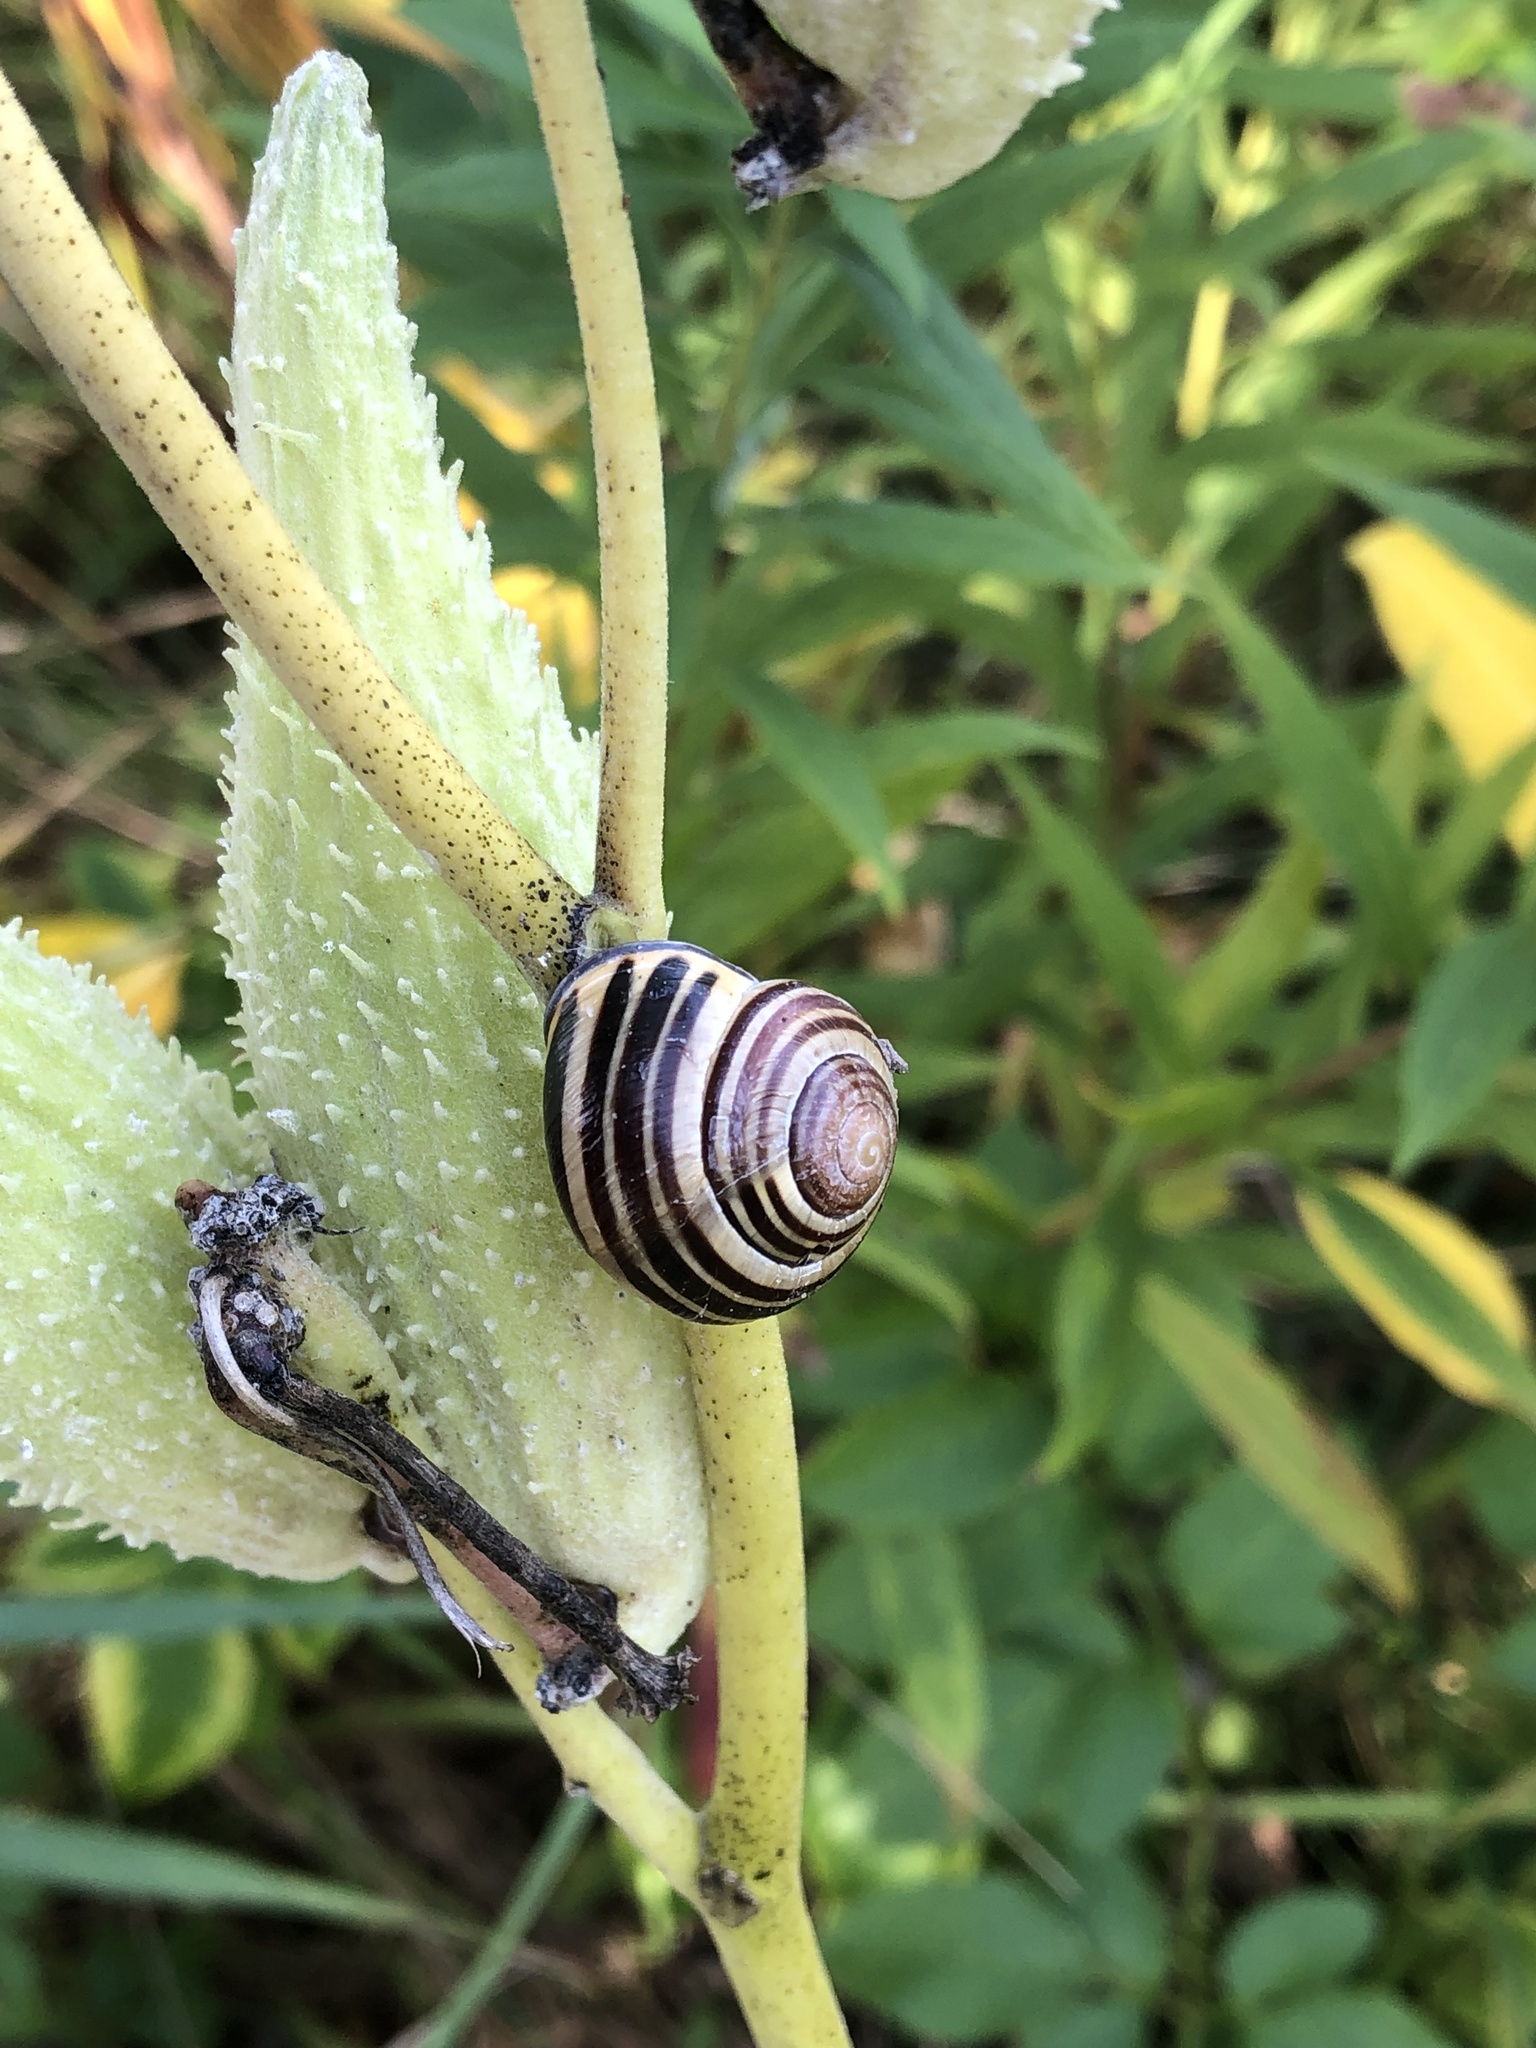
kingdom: Animalia
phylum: Mollusca
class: Gastropoda
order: Stylommatophora
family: Helicidae
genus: Cepaea
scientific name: Cepaea nemoralis
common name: Grovesnail
